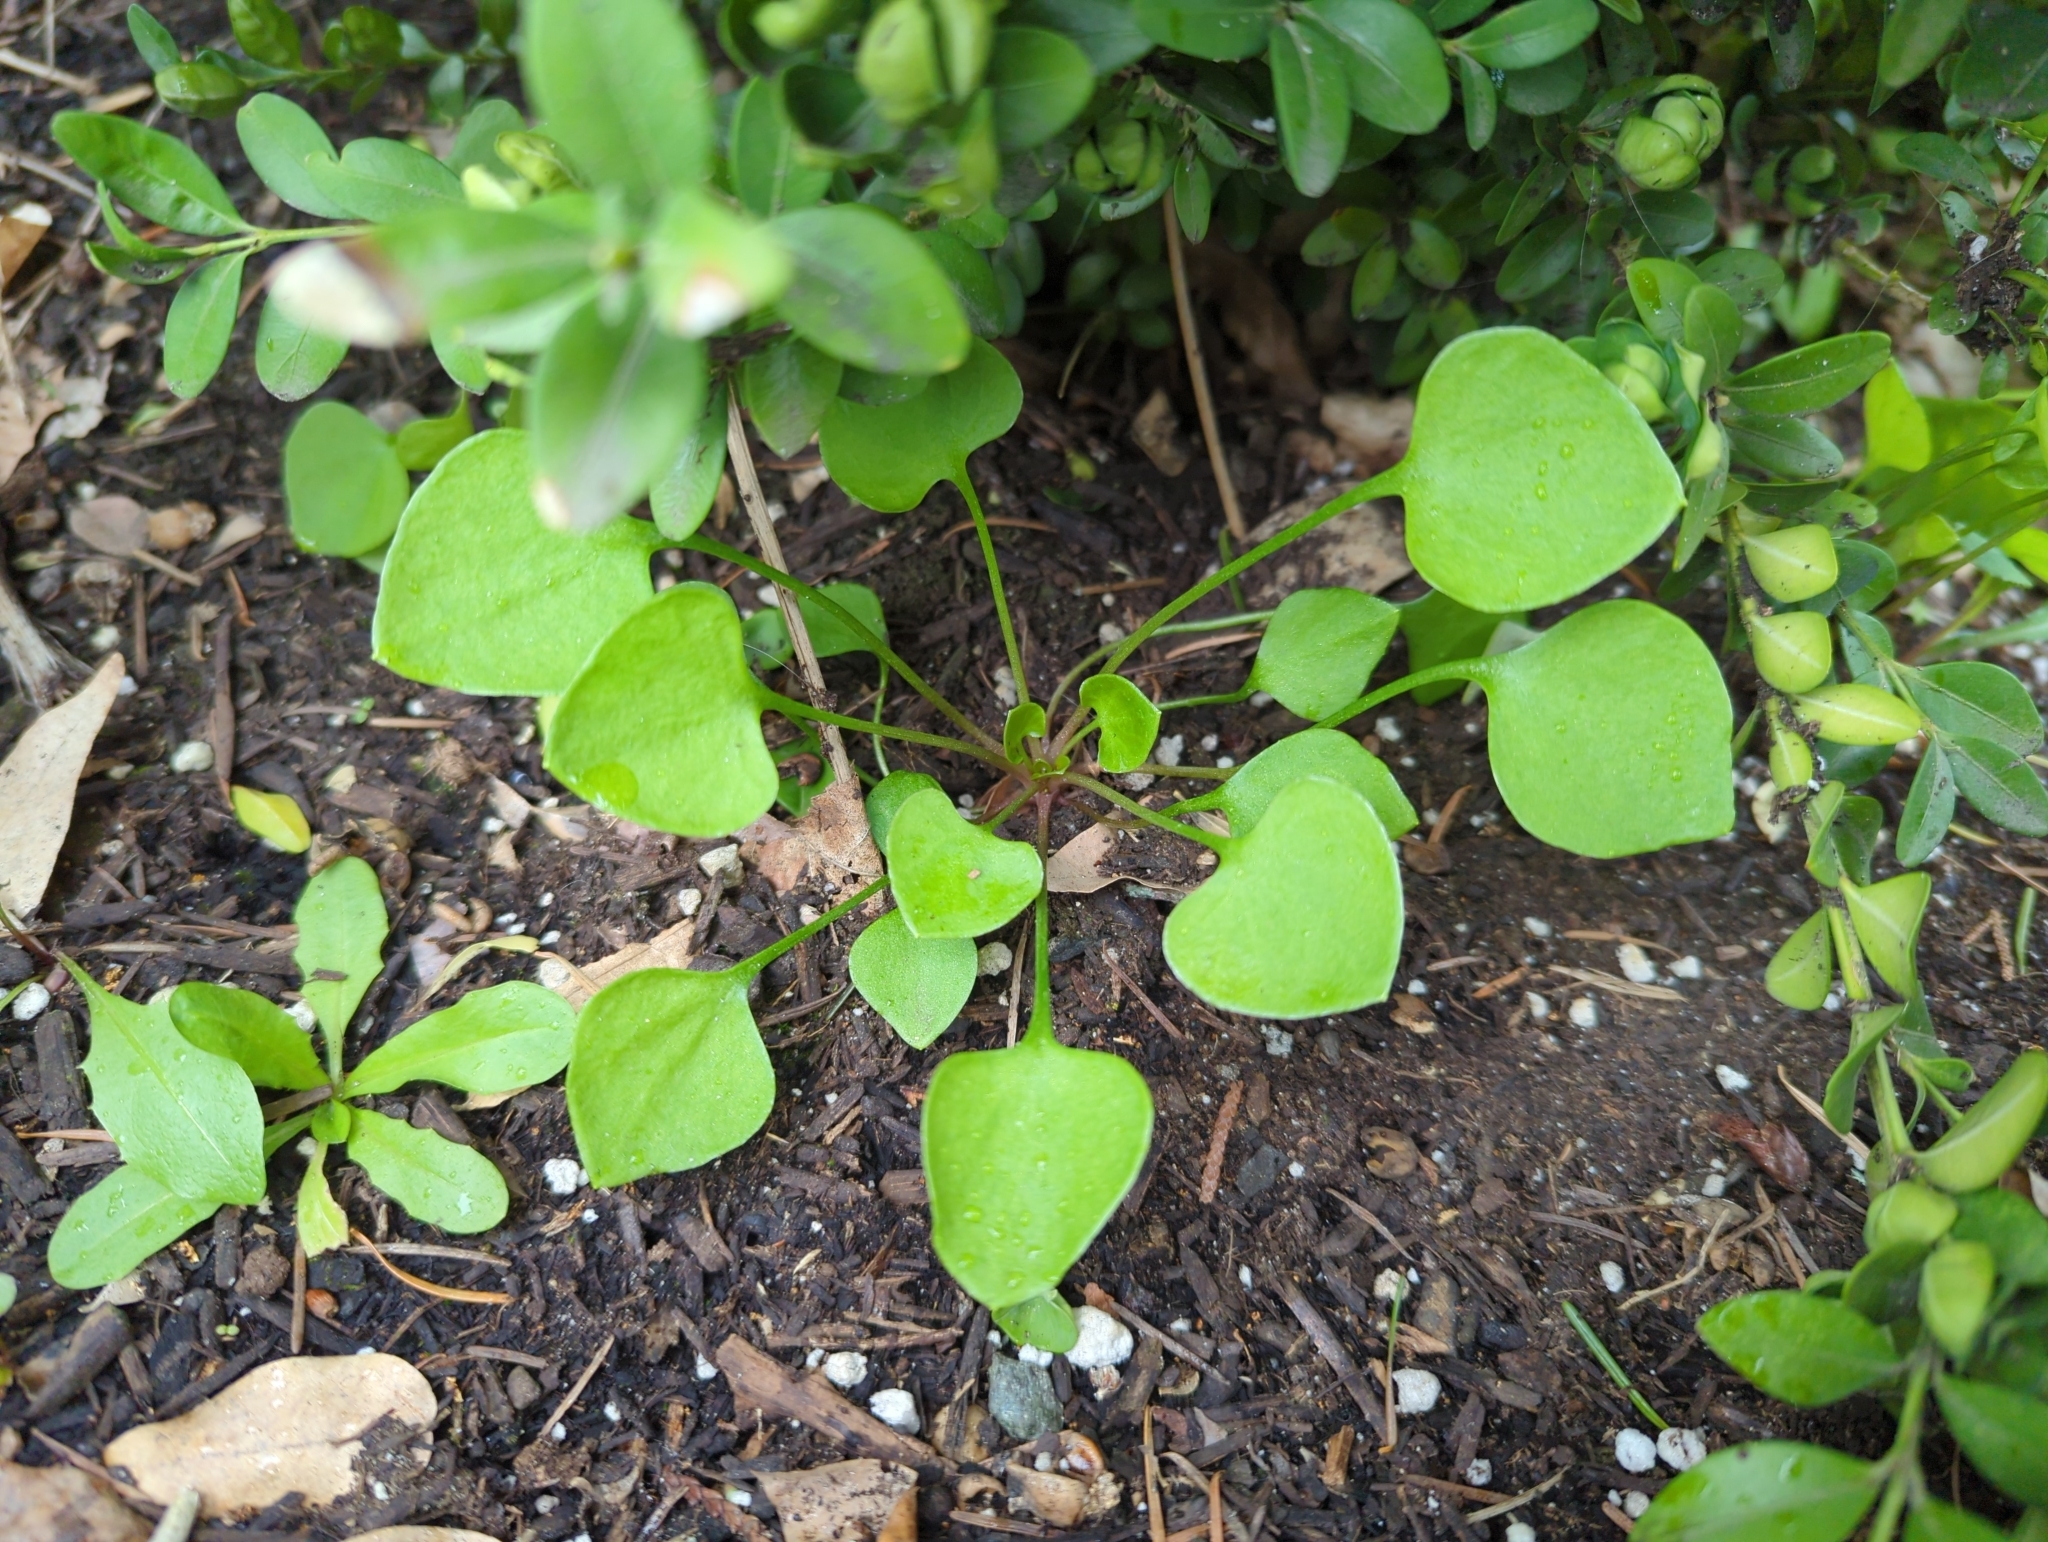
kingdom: Plantae
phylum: Tracheophyta
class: Magnoliopsida
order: Caryophyllales
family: Montiaceae
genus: Claytonia
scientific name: Claytonia perfoliata
